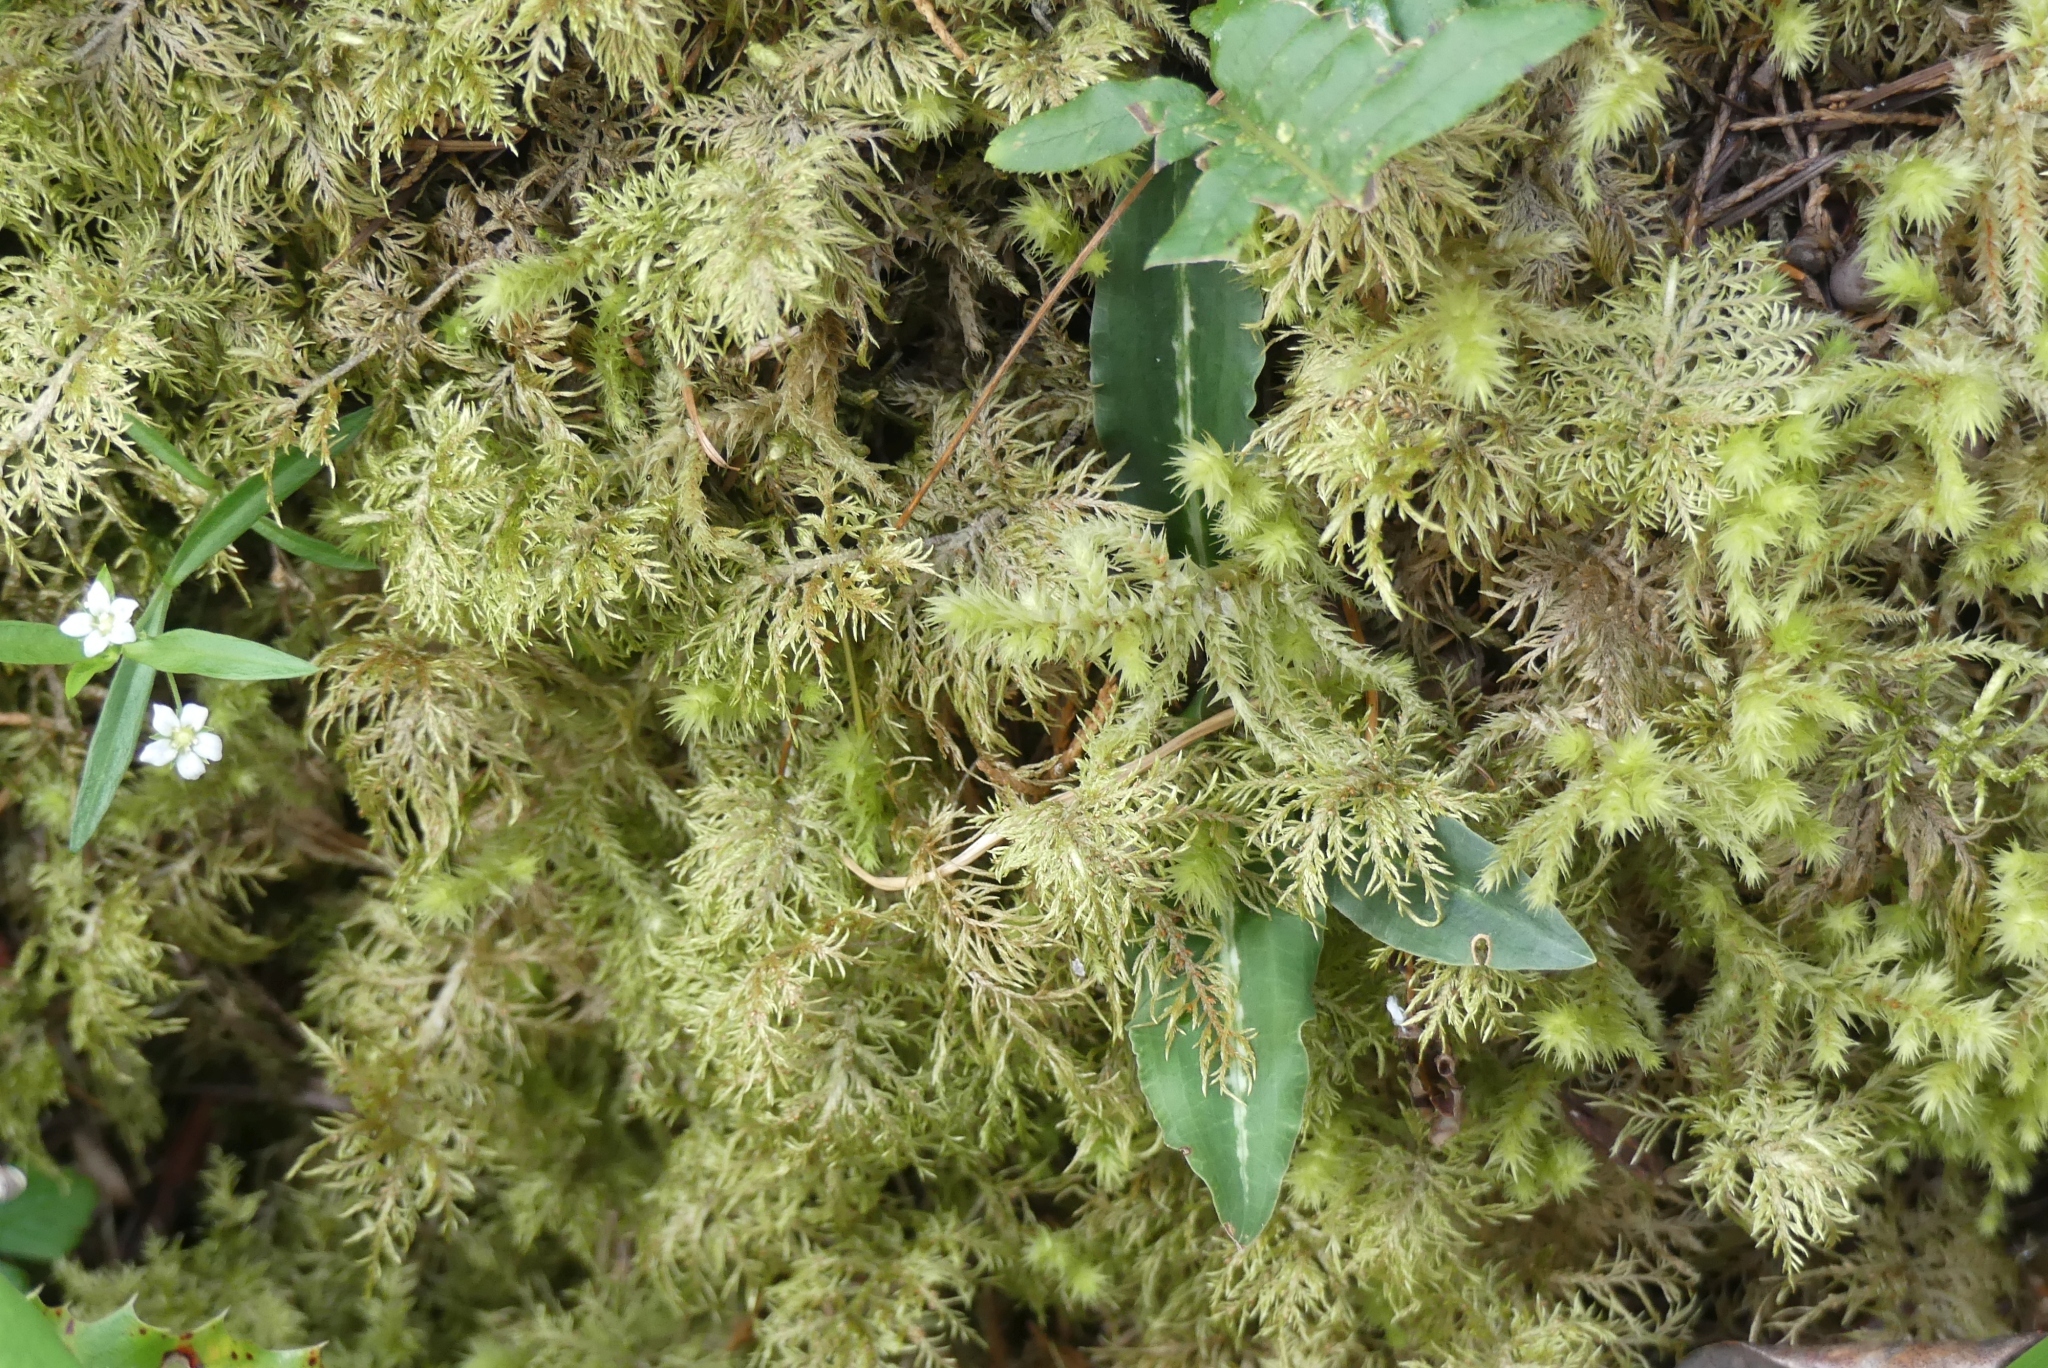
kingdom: Plantae
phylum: Tracheophyta
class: Liliopsida
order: Asparagales
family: Orchidaceae
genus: Goodyera
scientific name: Goodyera oblongifolia
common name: Giant rattlesnake-plantain
